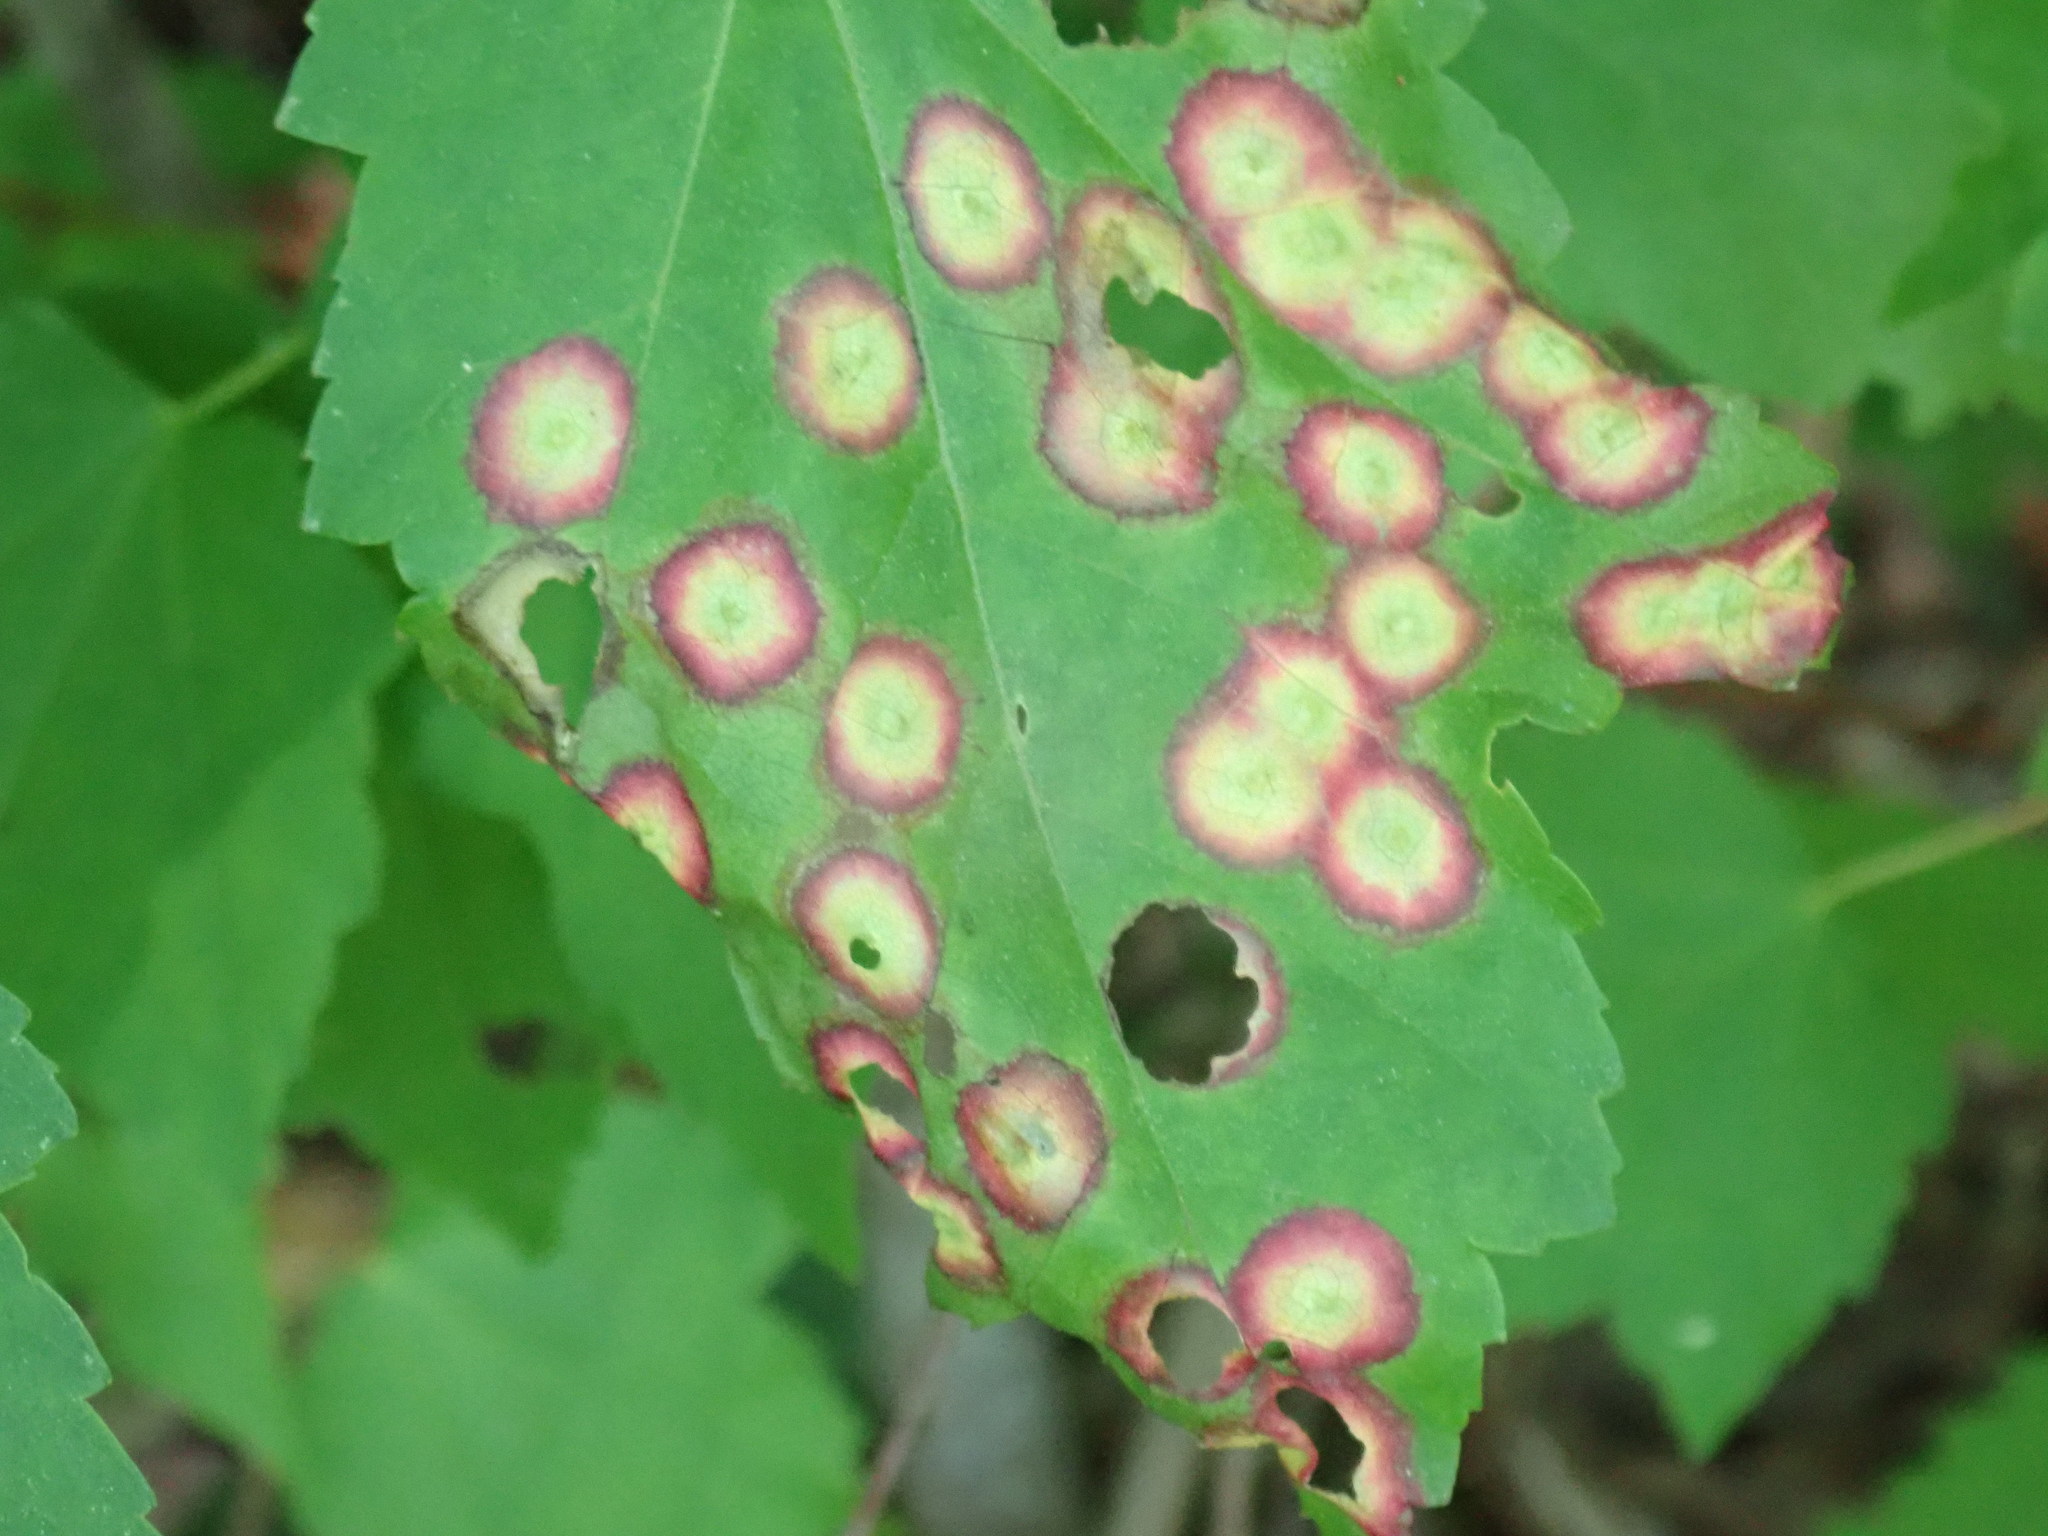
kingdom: Animalia
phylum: Arthropoda
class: Insecta
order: Diptera
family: Cecidomyiidae
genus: Acericecis
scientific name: Acericecis ocellaris
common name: Ocellate gall midge
